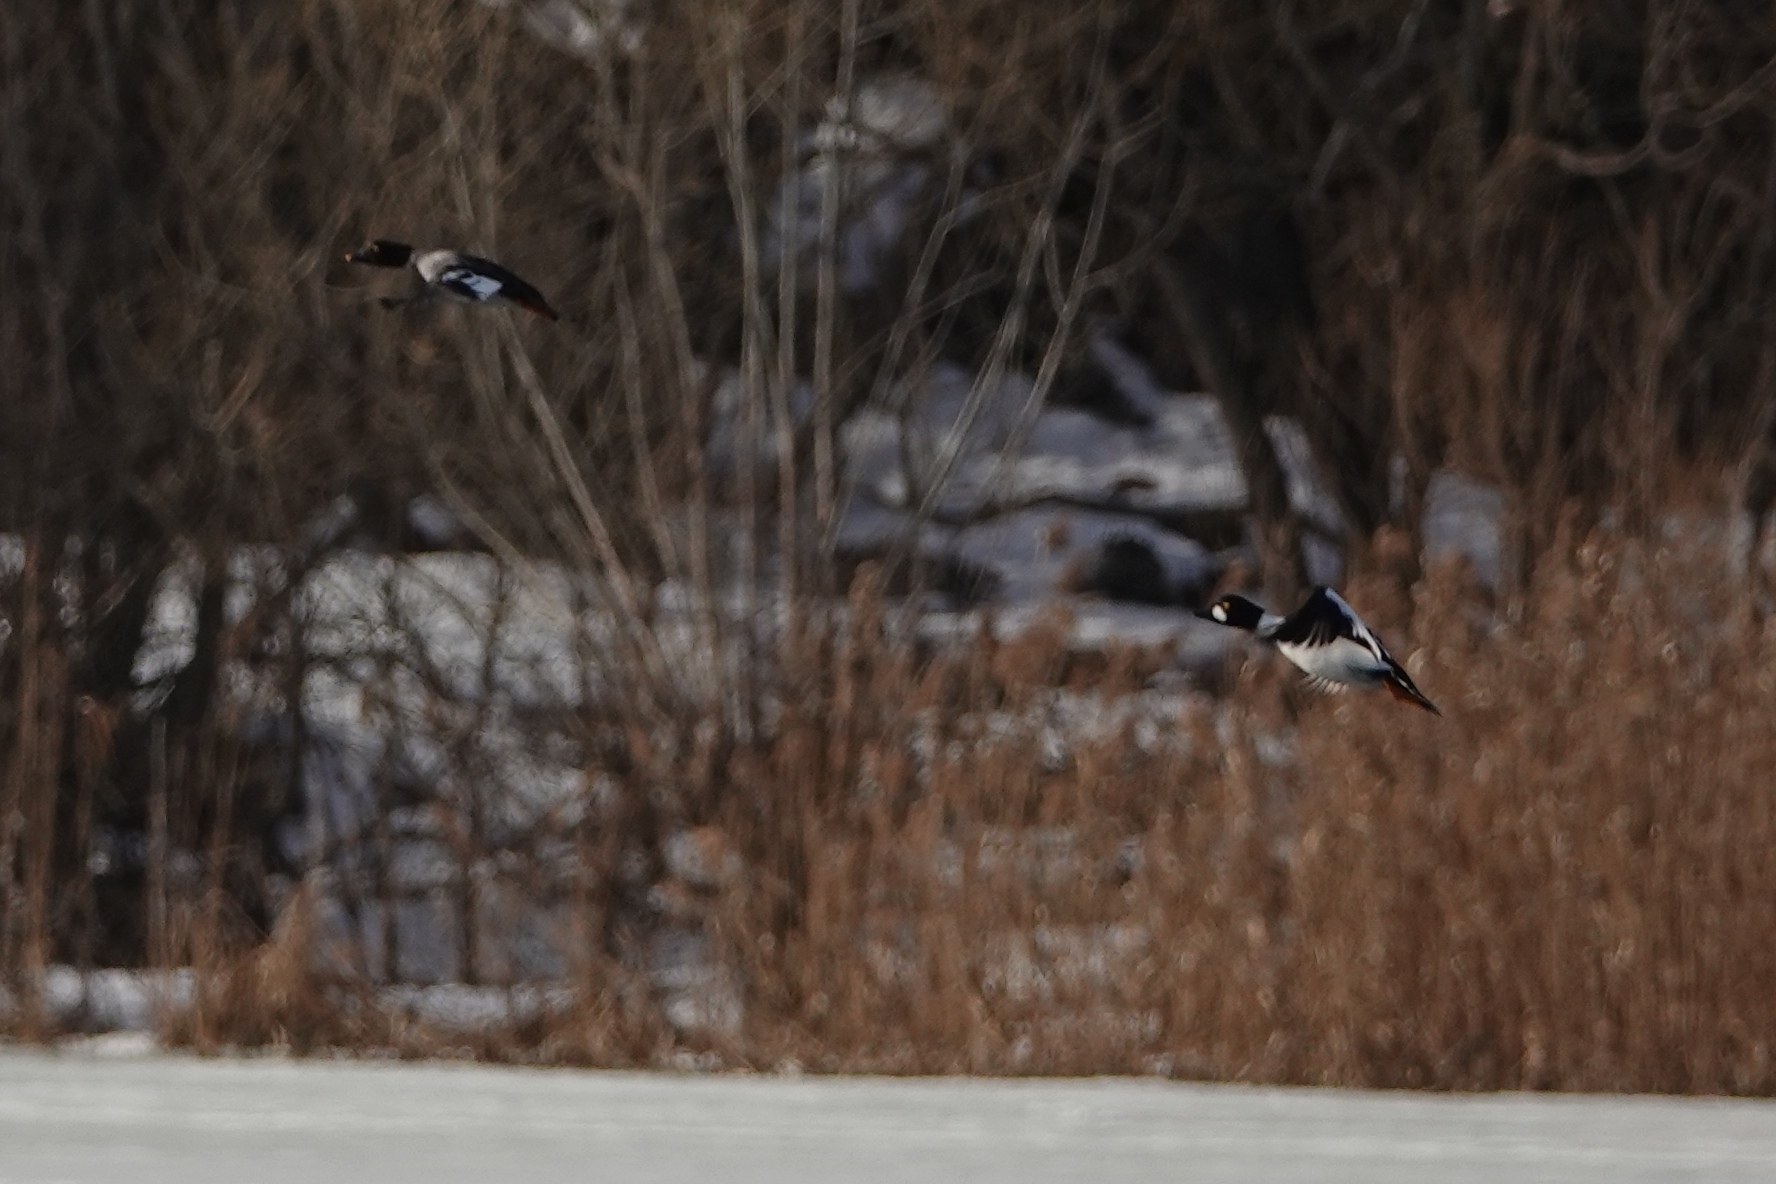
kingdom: Animalia
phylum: Chordata
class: Aves
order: Anseriformes
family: Anatidae
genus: Bucephala
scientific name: Bucephala clangula
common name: Common goldeneye
